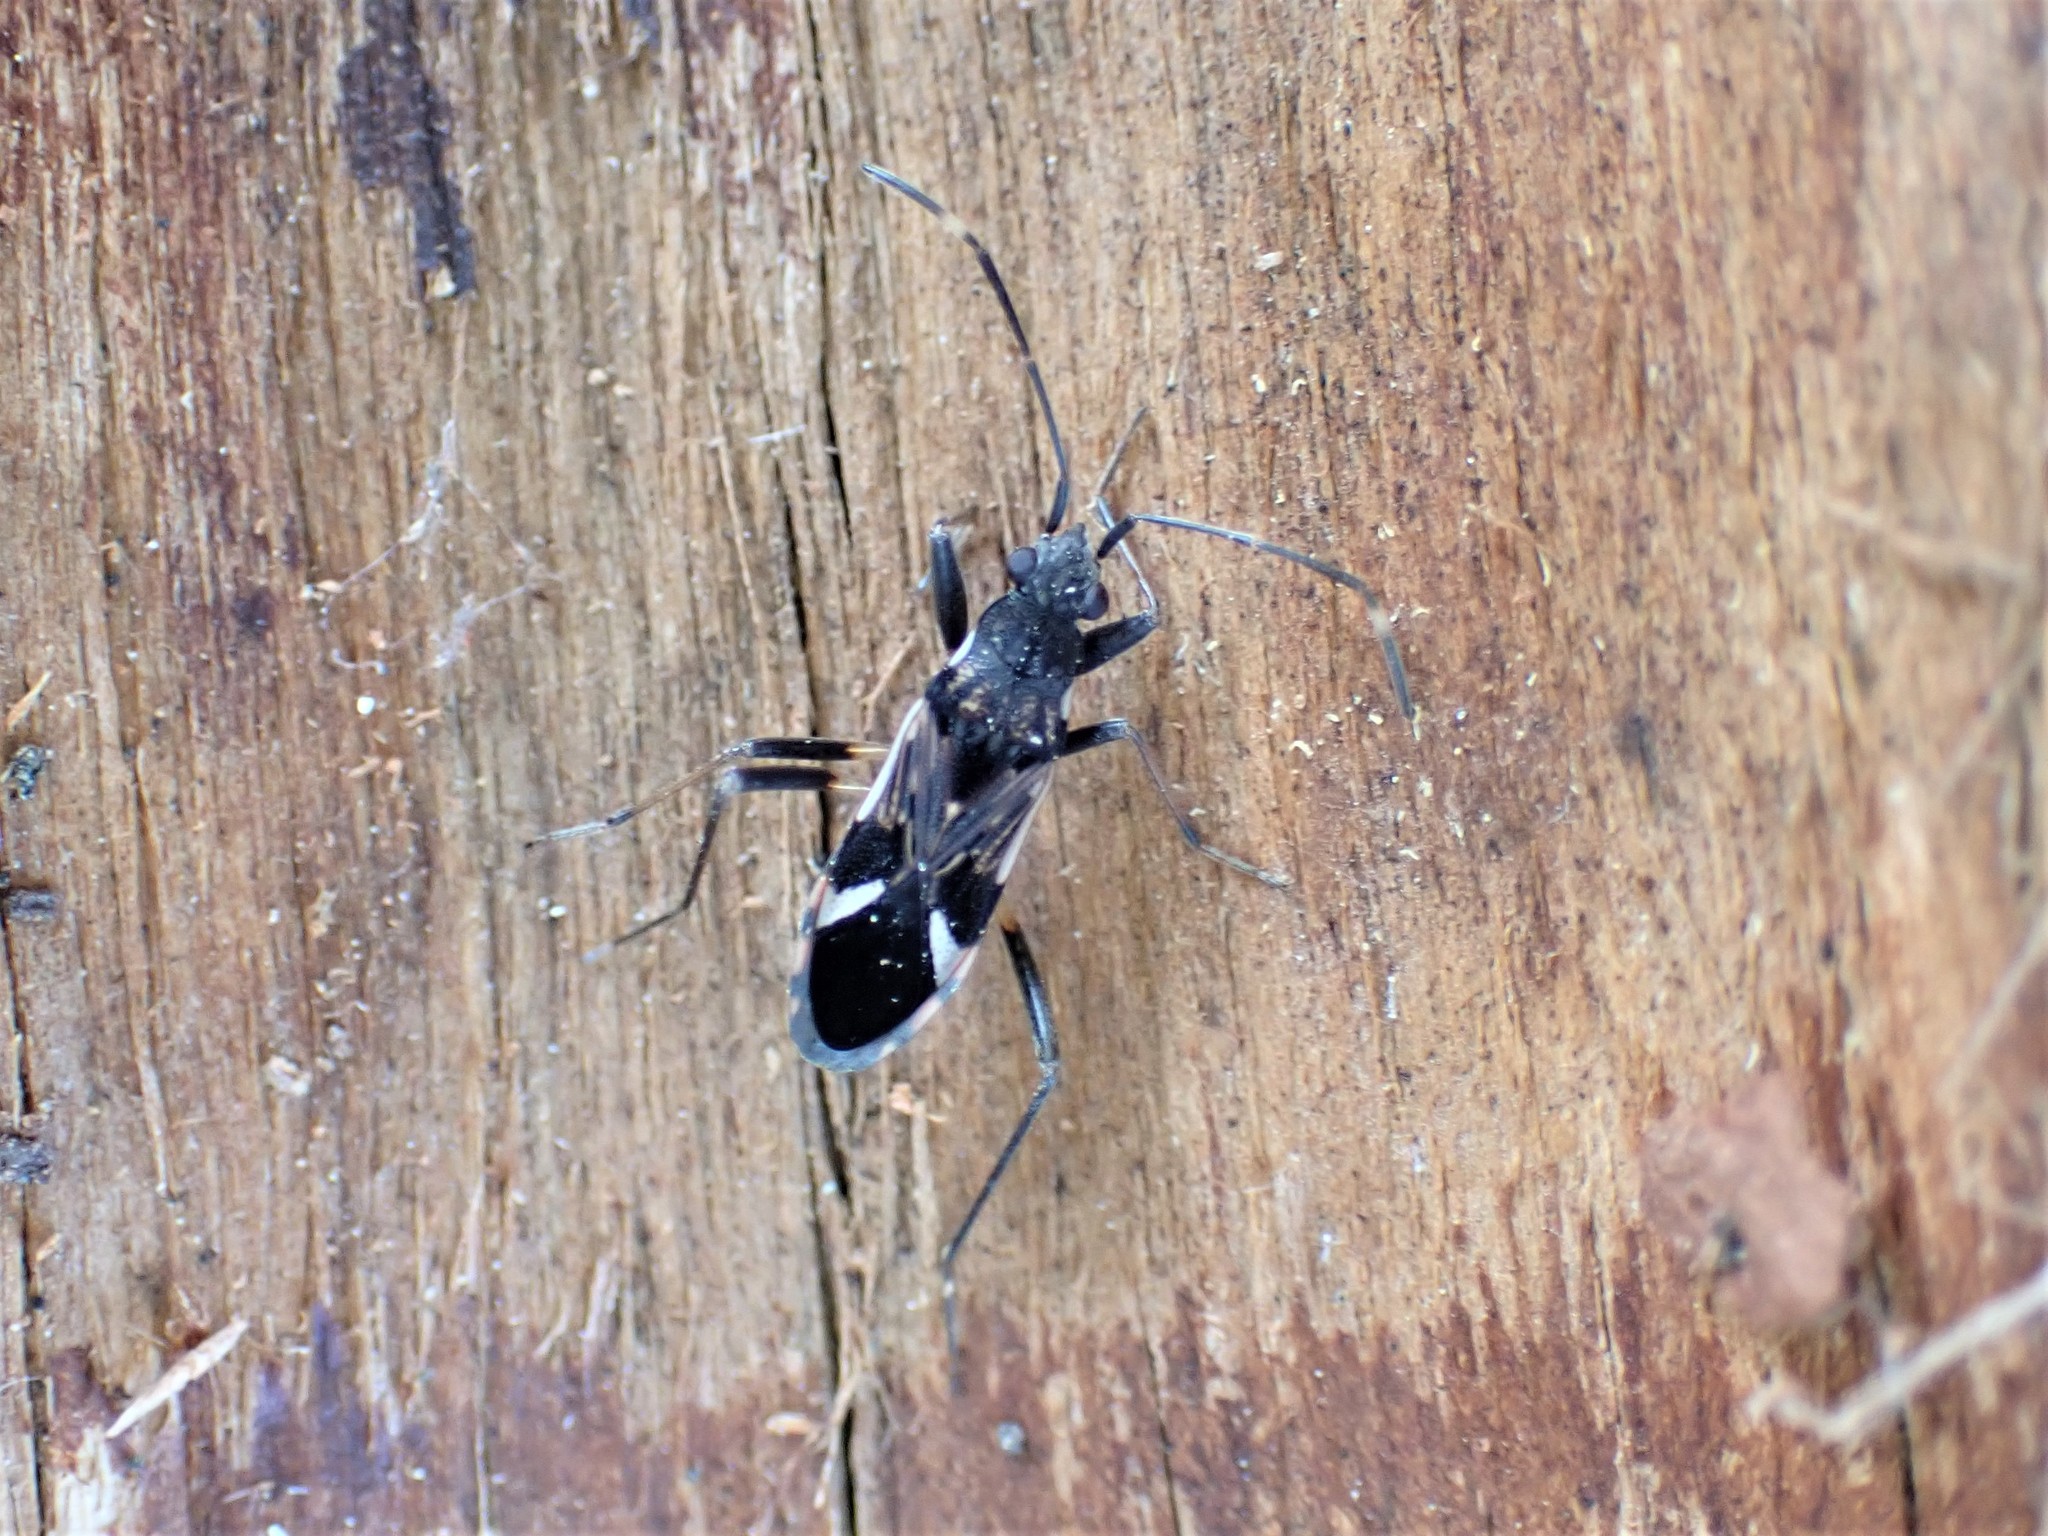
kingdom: Animalia
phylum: Arthropoda
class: Insecta
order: Hemiptera
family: Rhyparochromidae
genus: Dieuches
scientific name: Dieuches notatus
